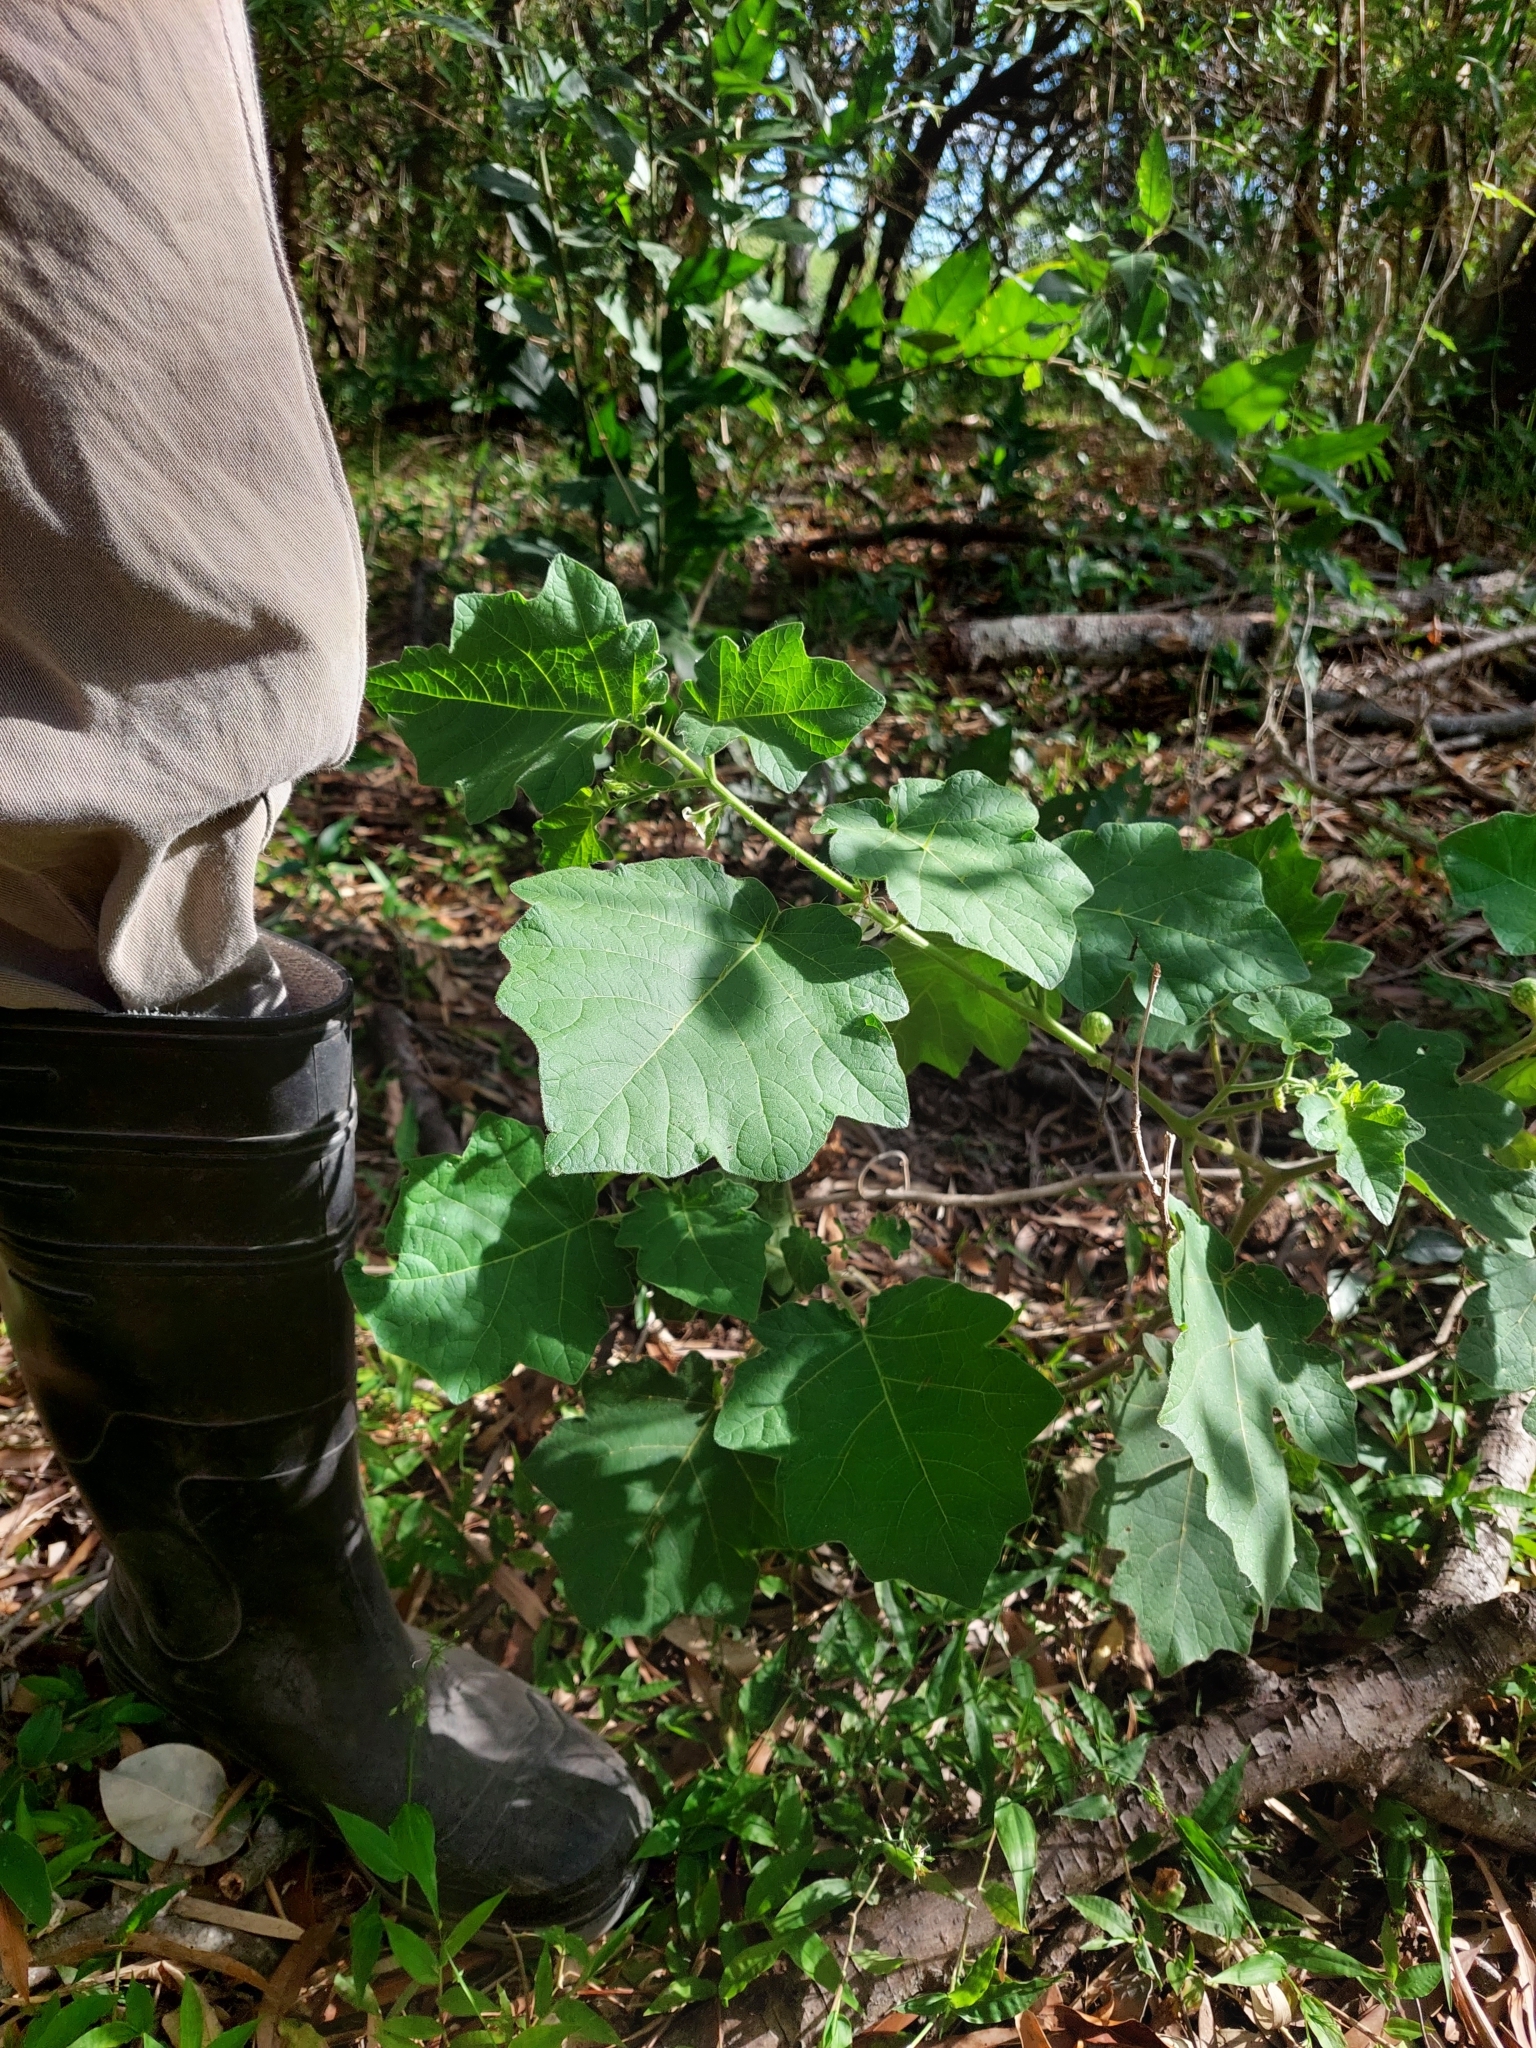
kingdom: Plantae
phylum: Tracheophyta
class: Magnoliopsida
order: Solanales
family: Solanaceae
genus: Solanum
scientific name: Solanum viarum
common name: Tropical soda apple
